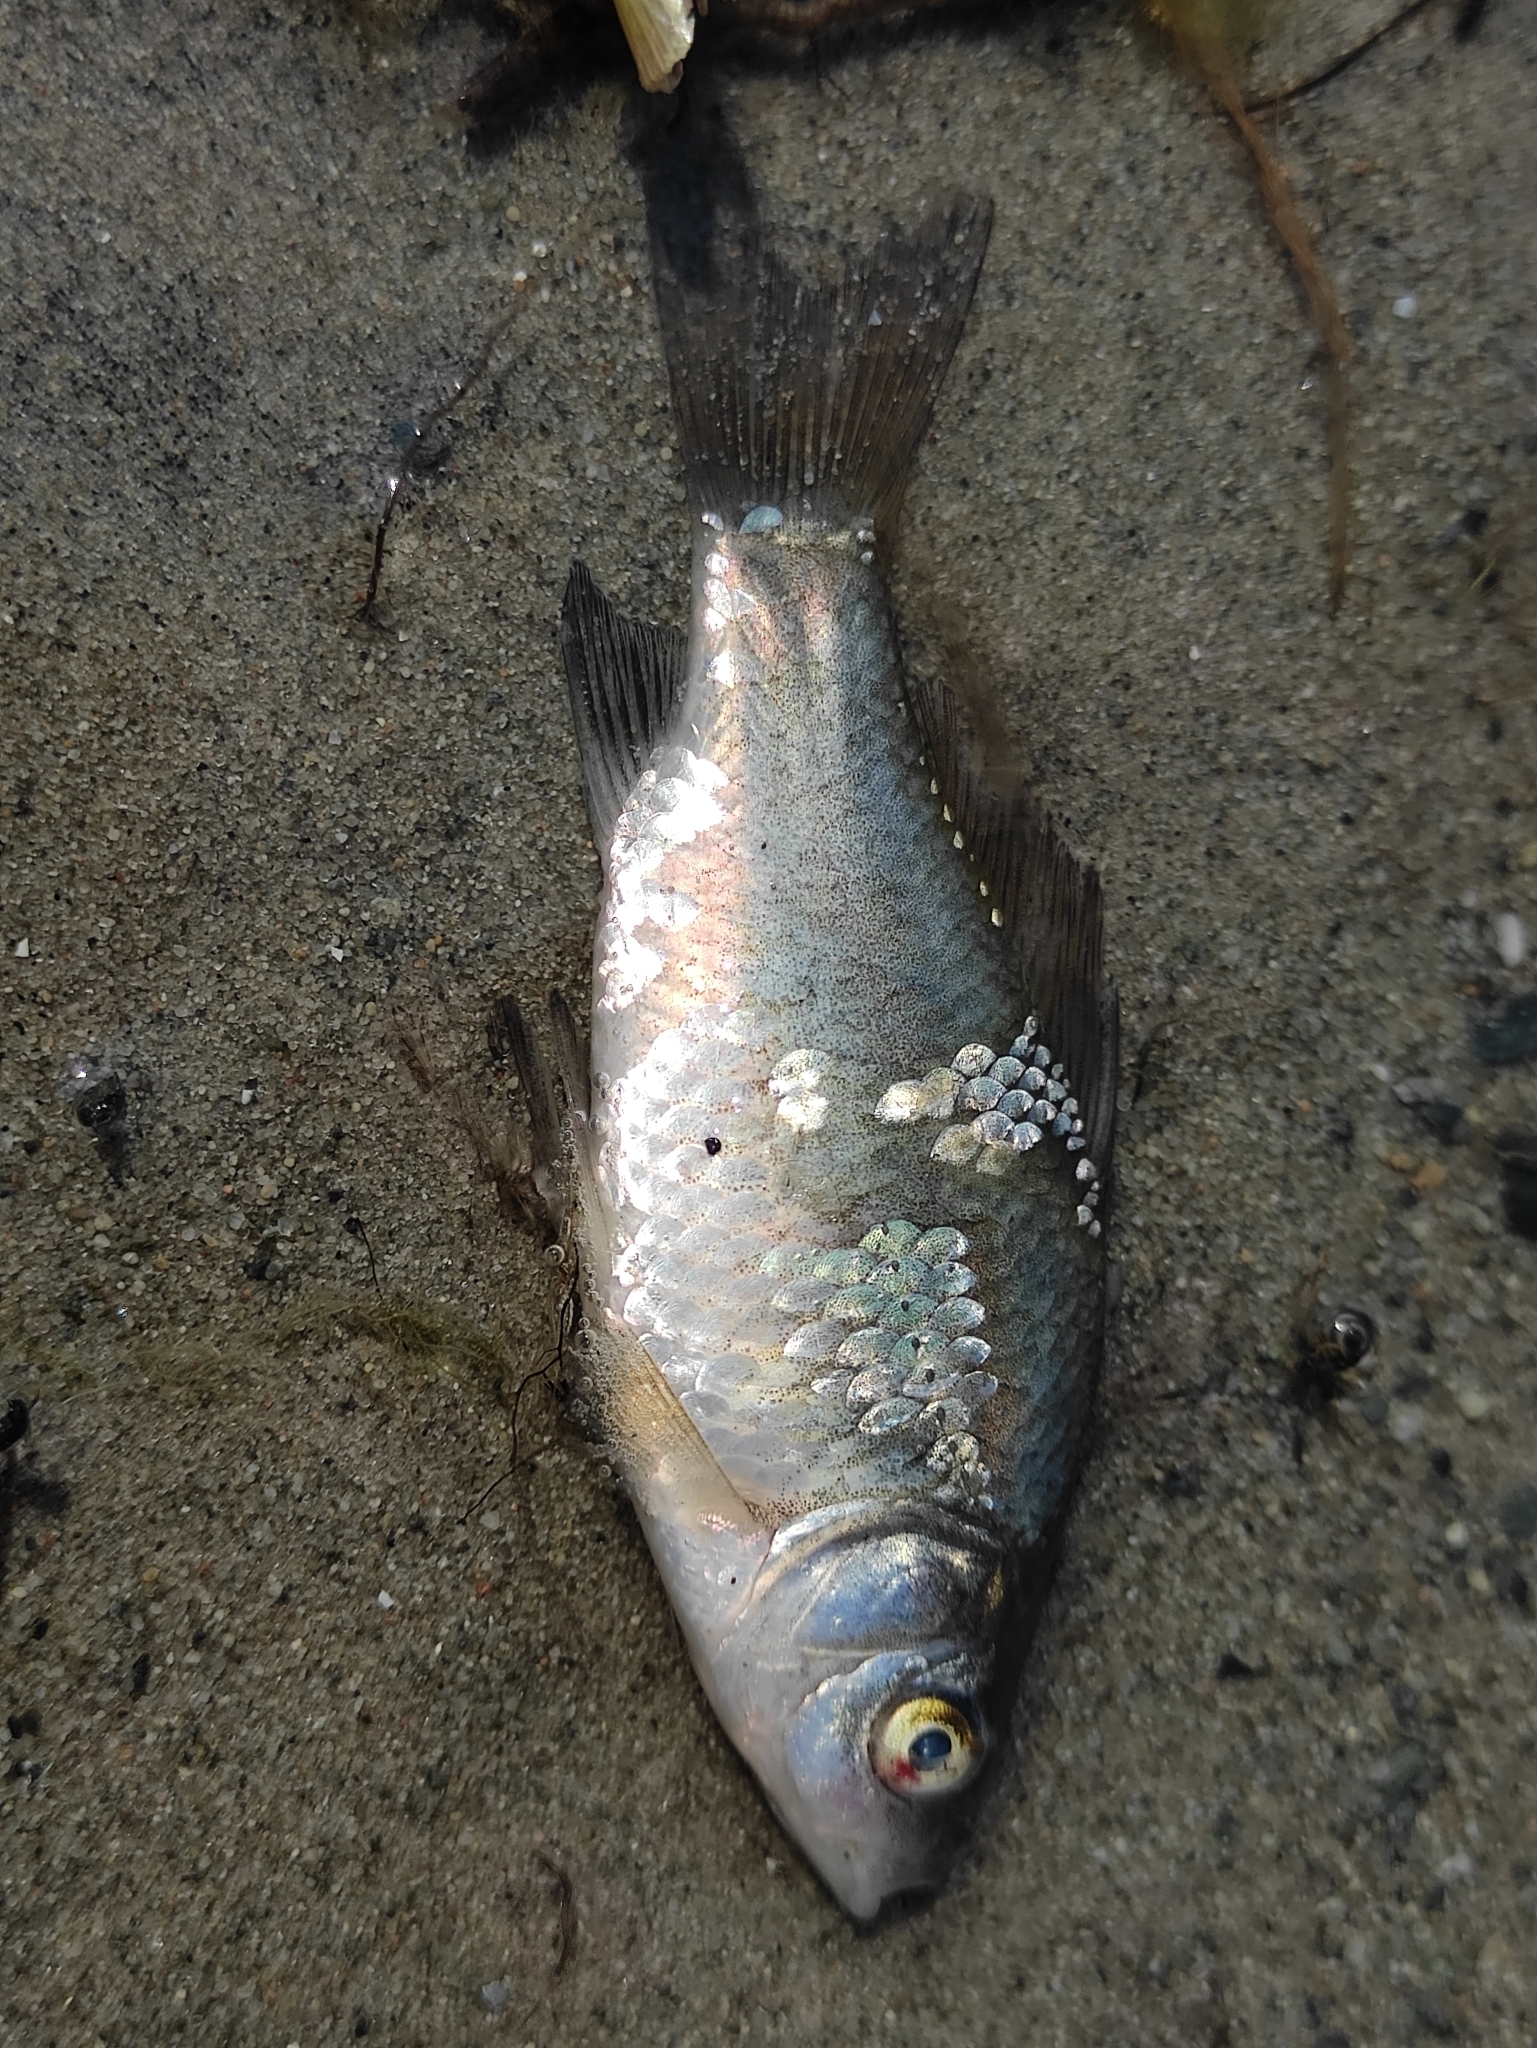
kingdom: Animalia
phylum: Chordata
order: Cypriniformes
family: Cyprinidae
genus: Carassius
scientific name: Carassius gibelio
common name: Prussian carp
